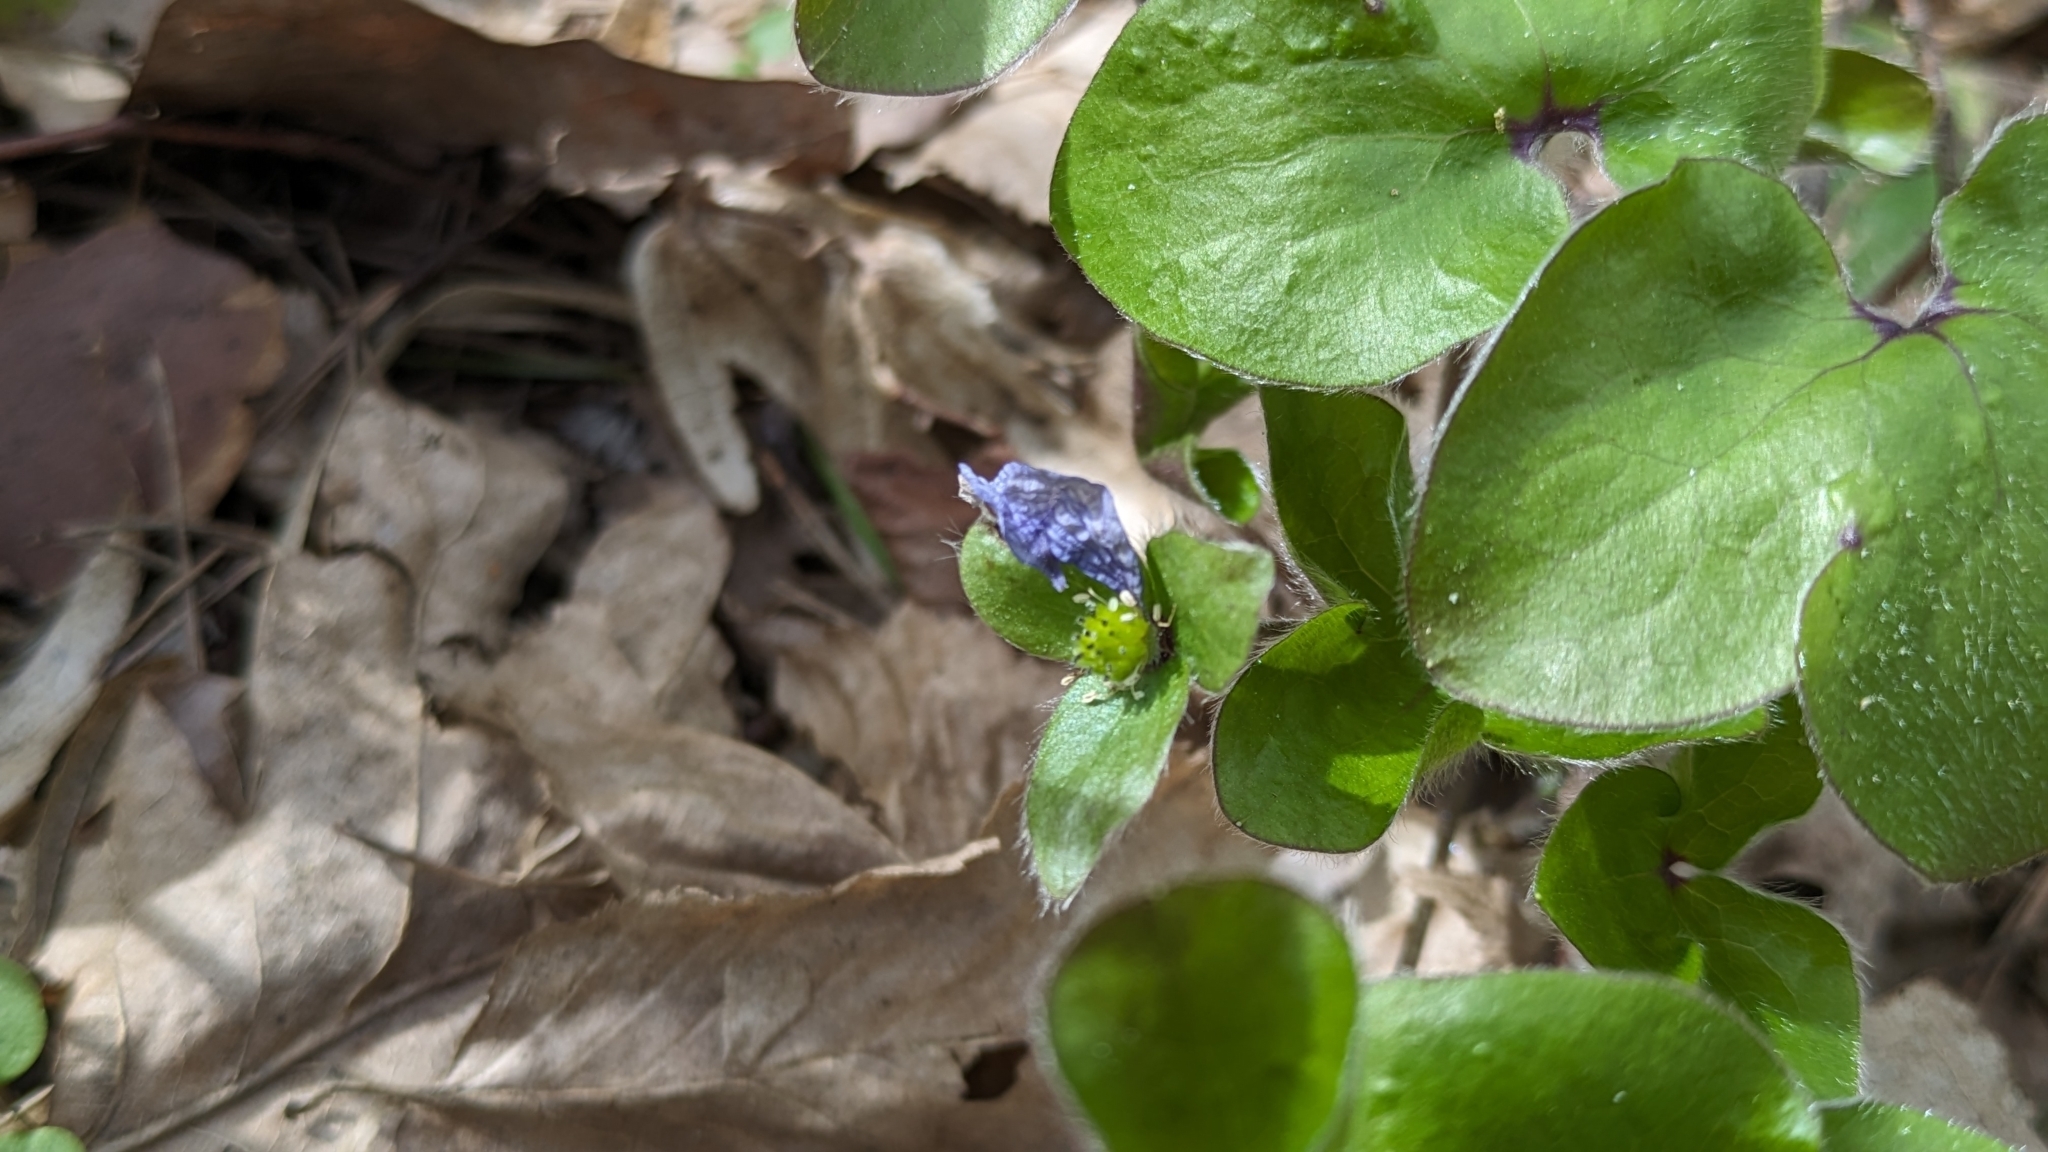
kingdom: Plantae
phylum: Tracheophyta
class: Magnoliopsida
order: Ranunculales
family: Ranunculaceae
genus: Hepatica
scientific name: Hepatica nobilis
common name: Liverleaf
